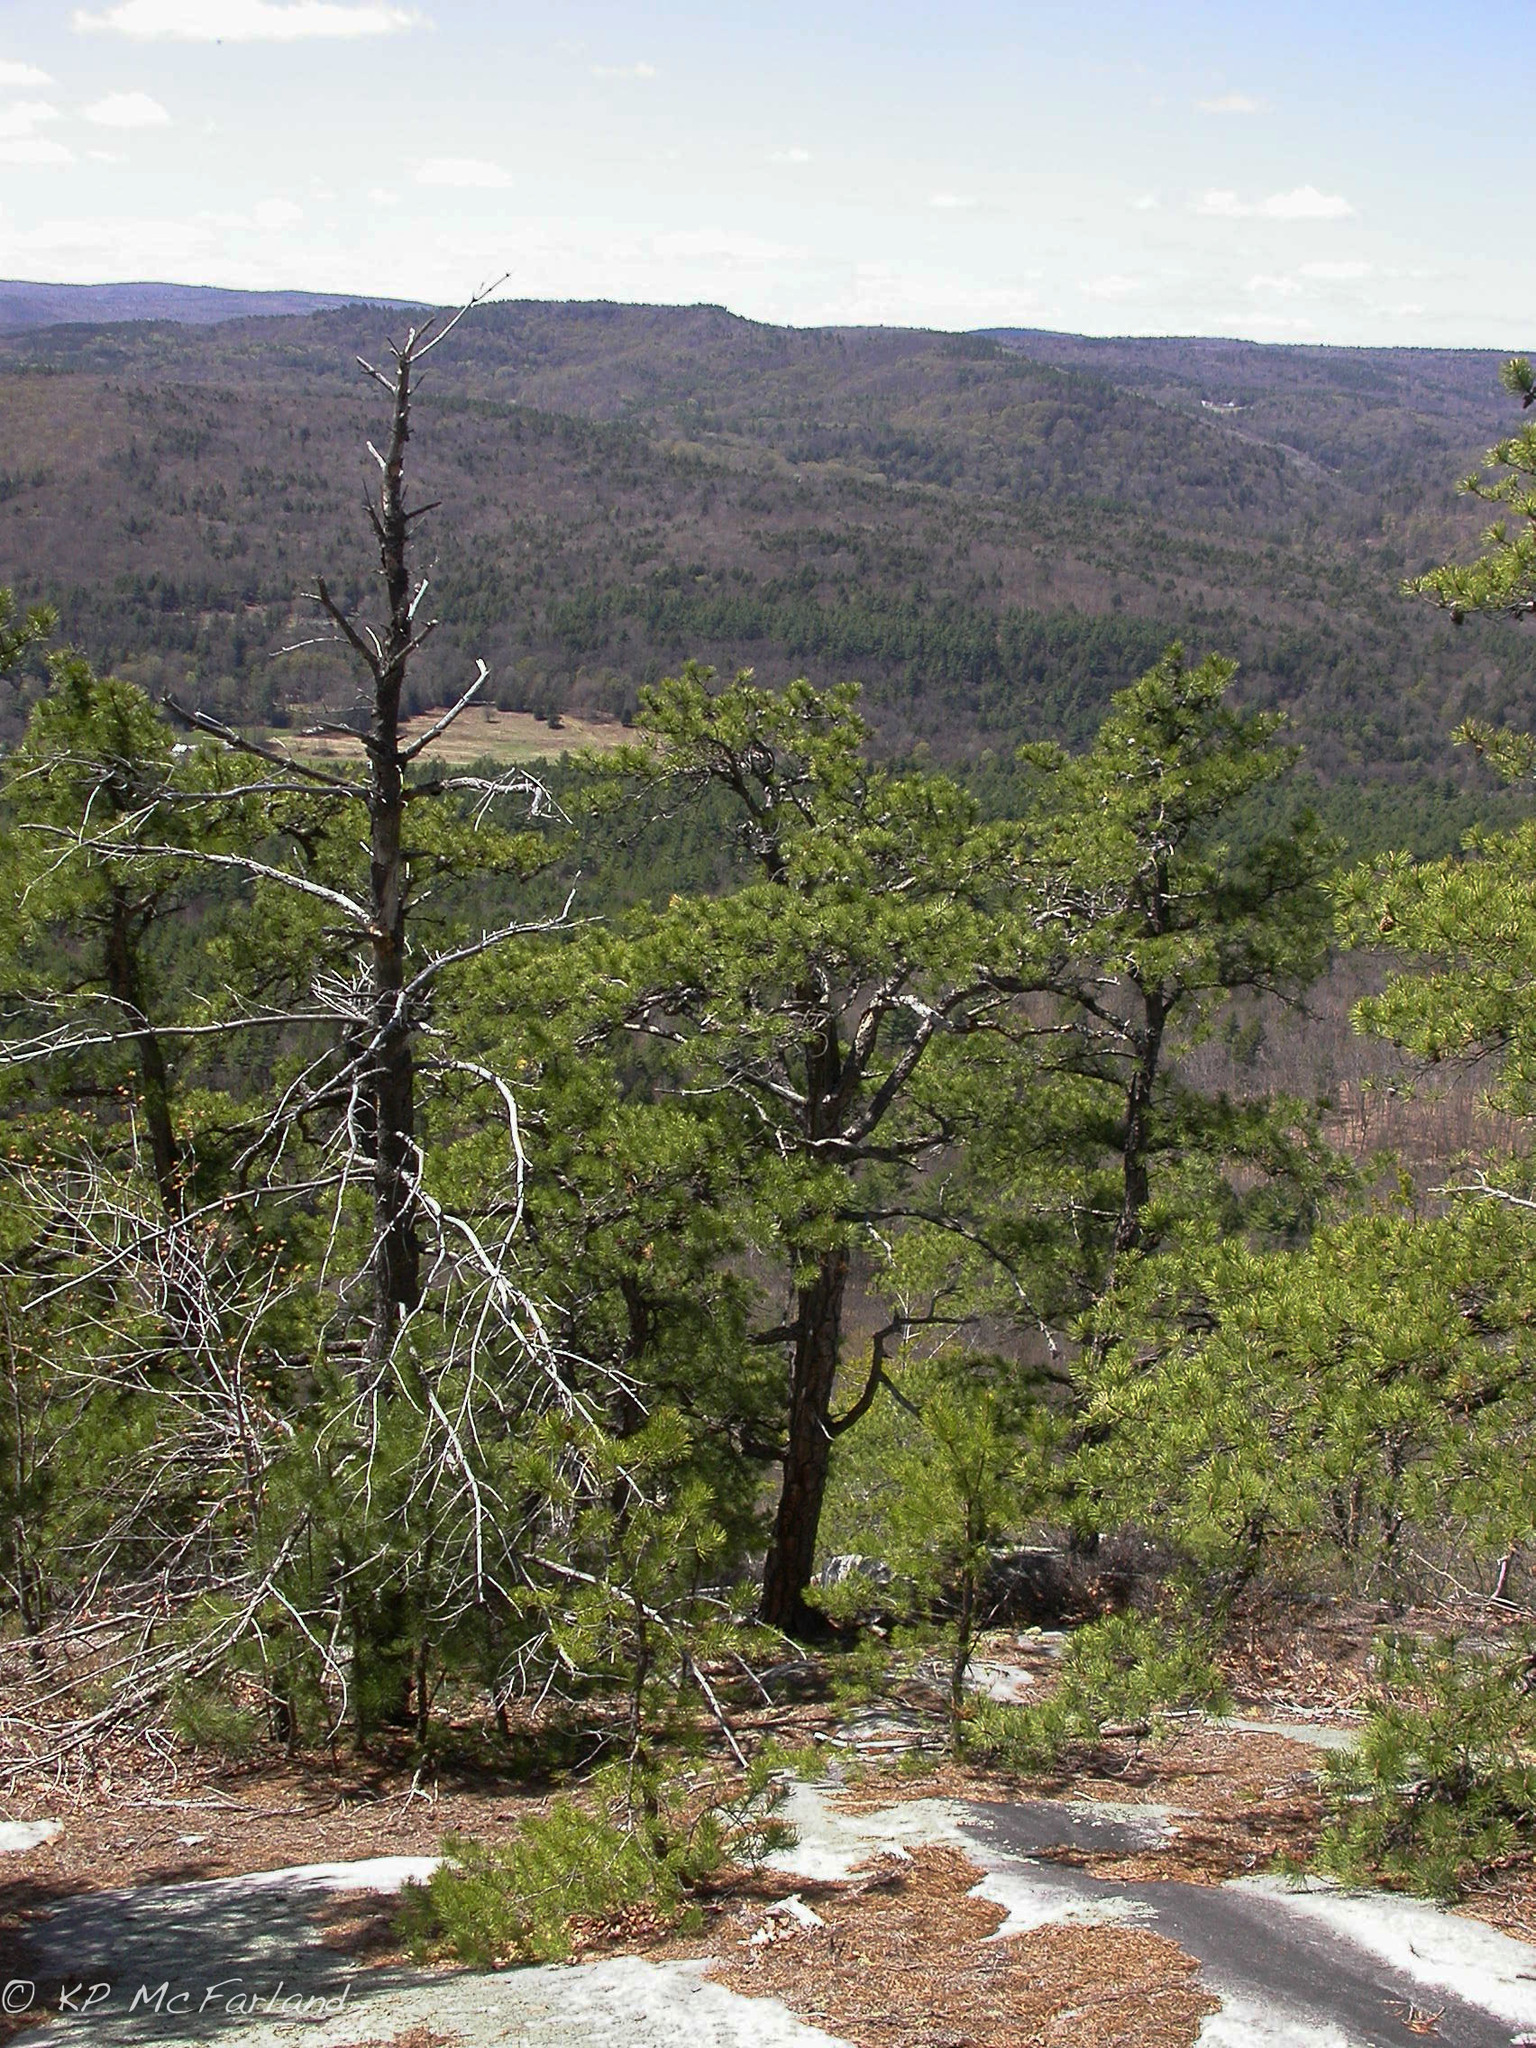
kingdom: Plantae
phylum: Tracheophyta
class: Pinopsida
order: Pinales
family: Pinaceae
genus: Pinus
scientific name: Pinus rigida
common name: Pitch pine
